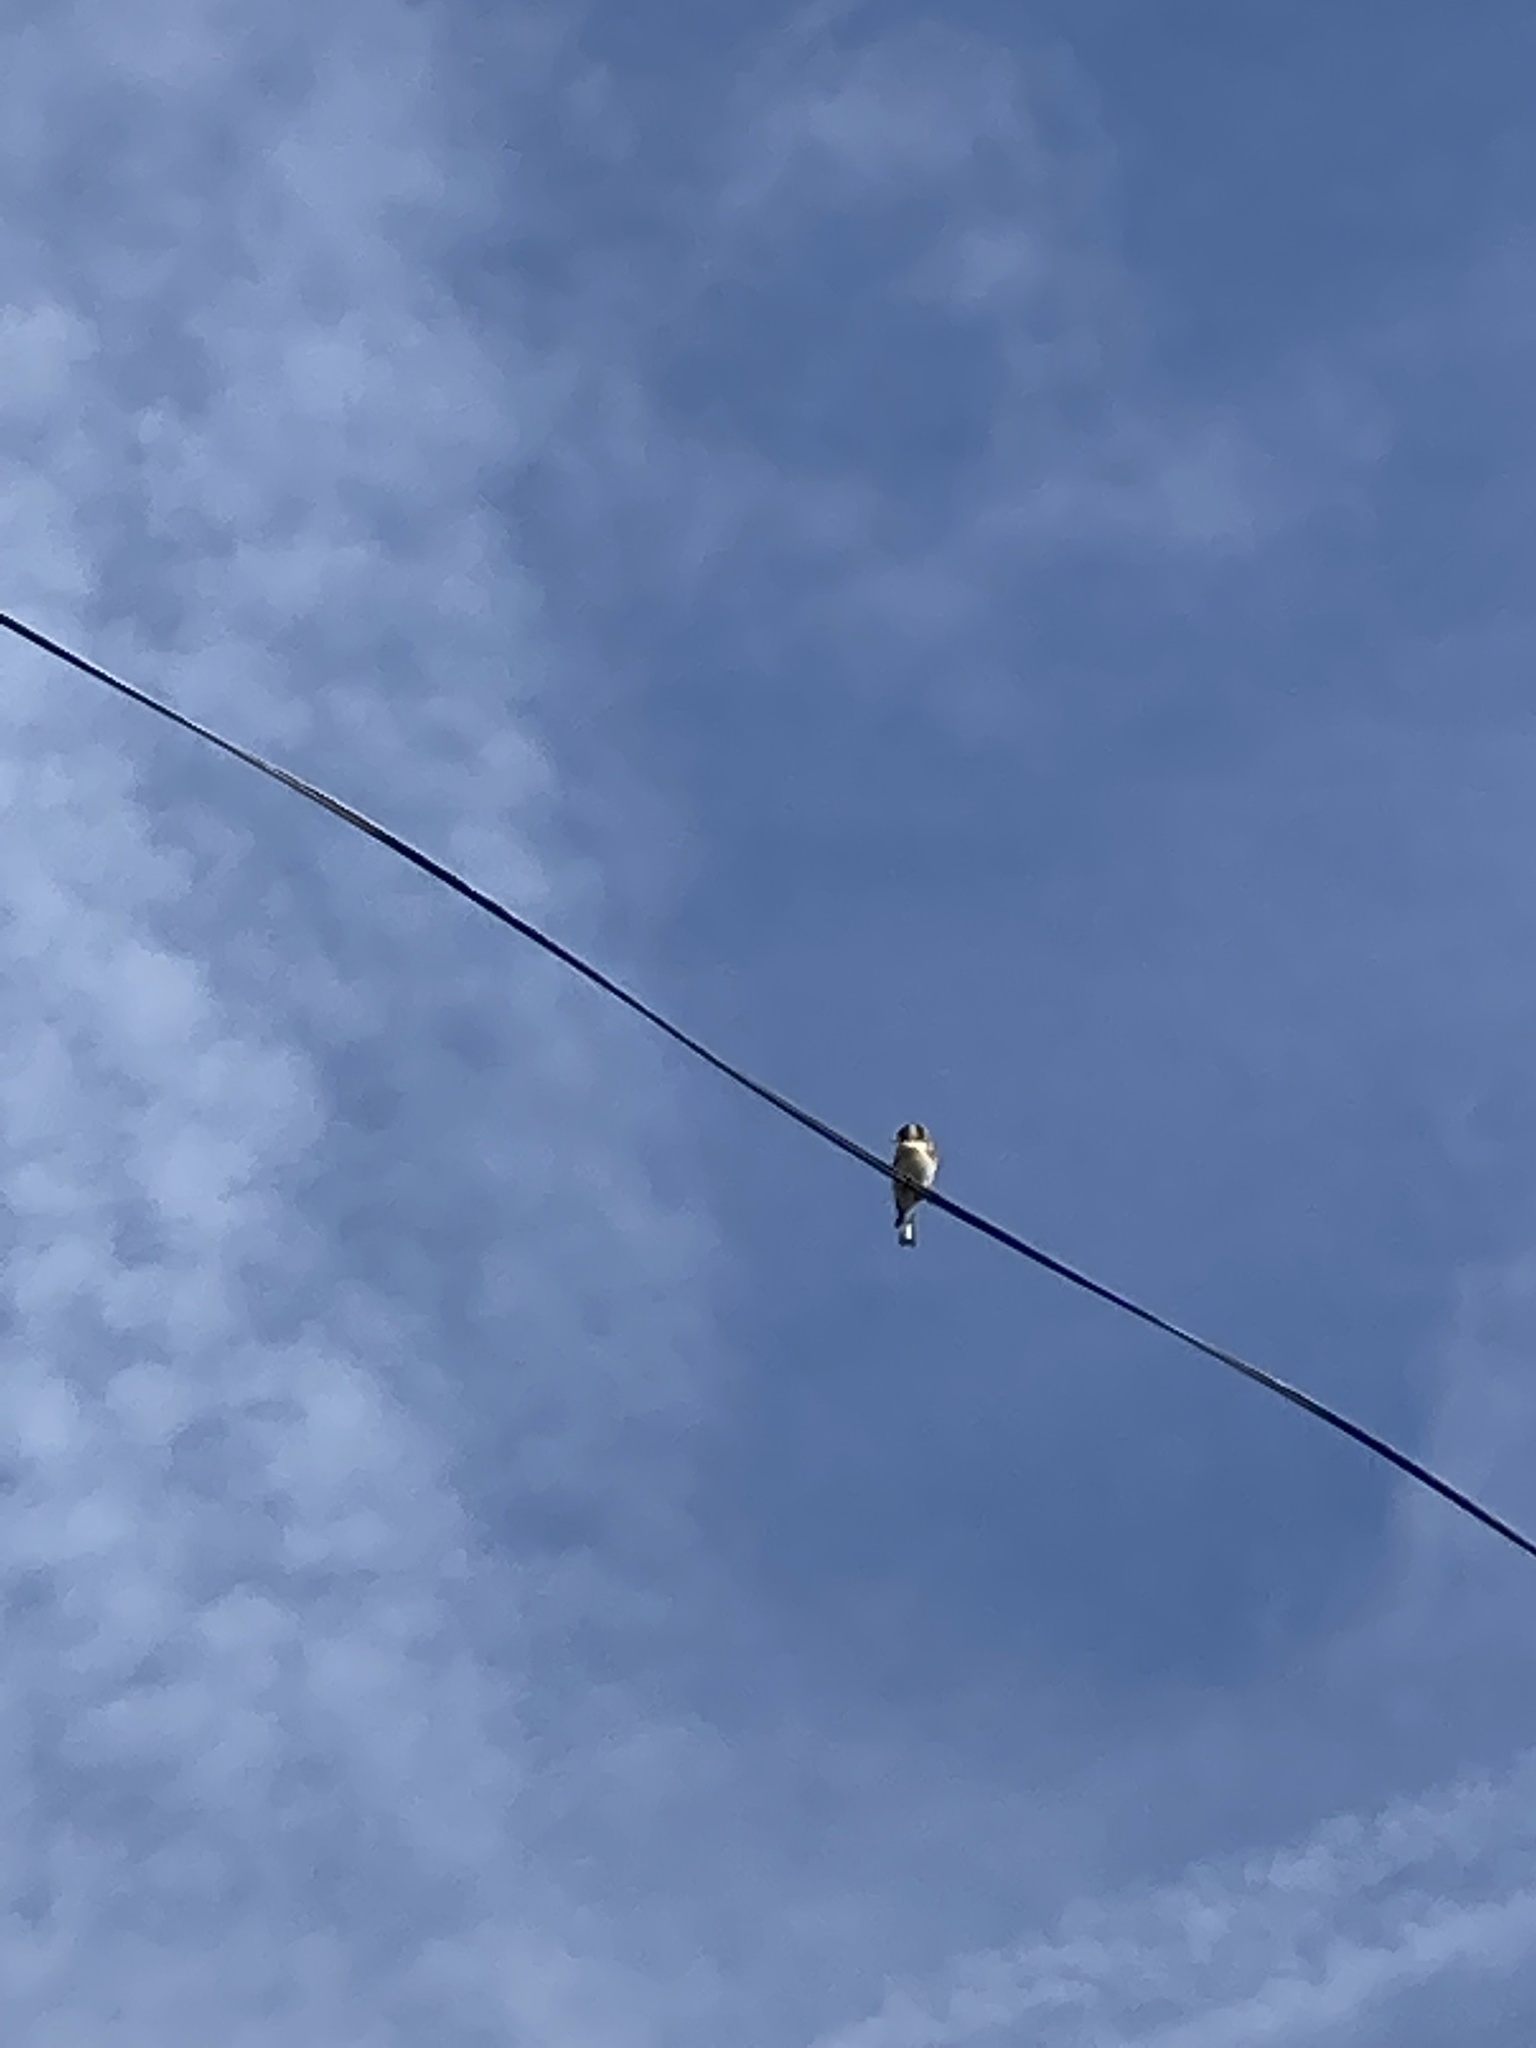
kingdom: Animalia
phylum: Chordata
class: Aves
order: Passeriformes
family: Fringillidae
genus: Carduelis
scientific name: Carduelis carduelis
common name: European goldfinch
